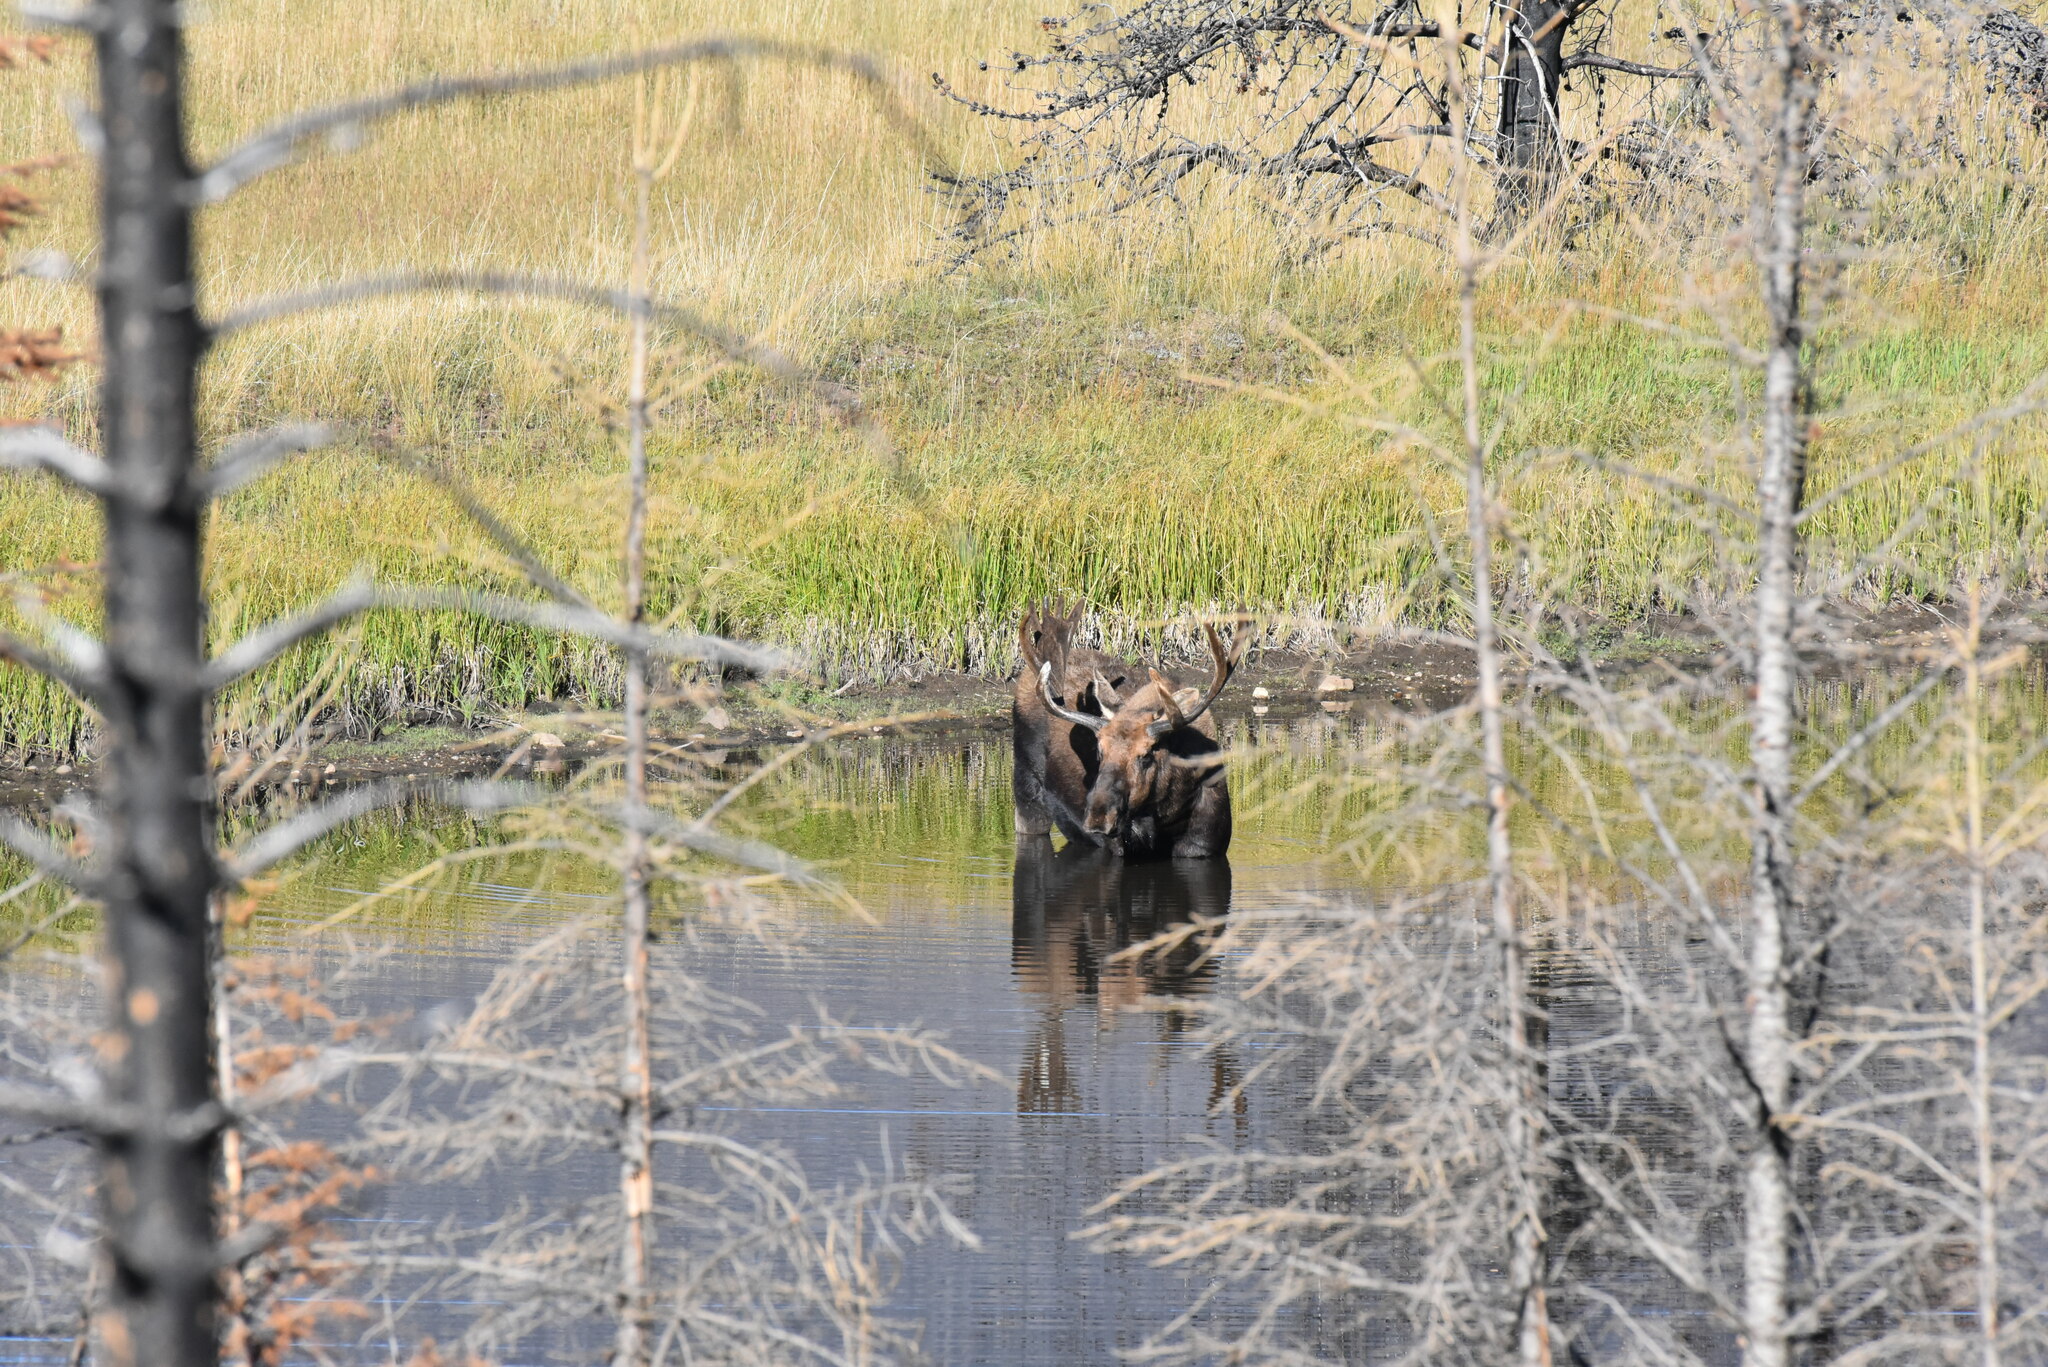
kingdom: Animalia
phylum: Chordata
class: Mammalia
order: Artiodactyla
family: Cervidae
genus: Alces
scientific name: Alces alces
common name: Moose
